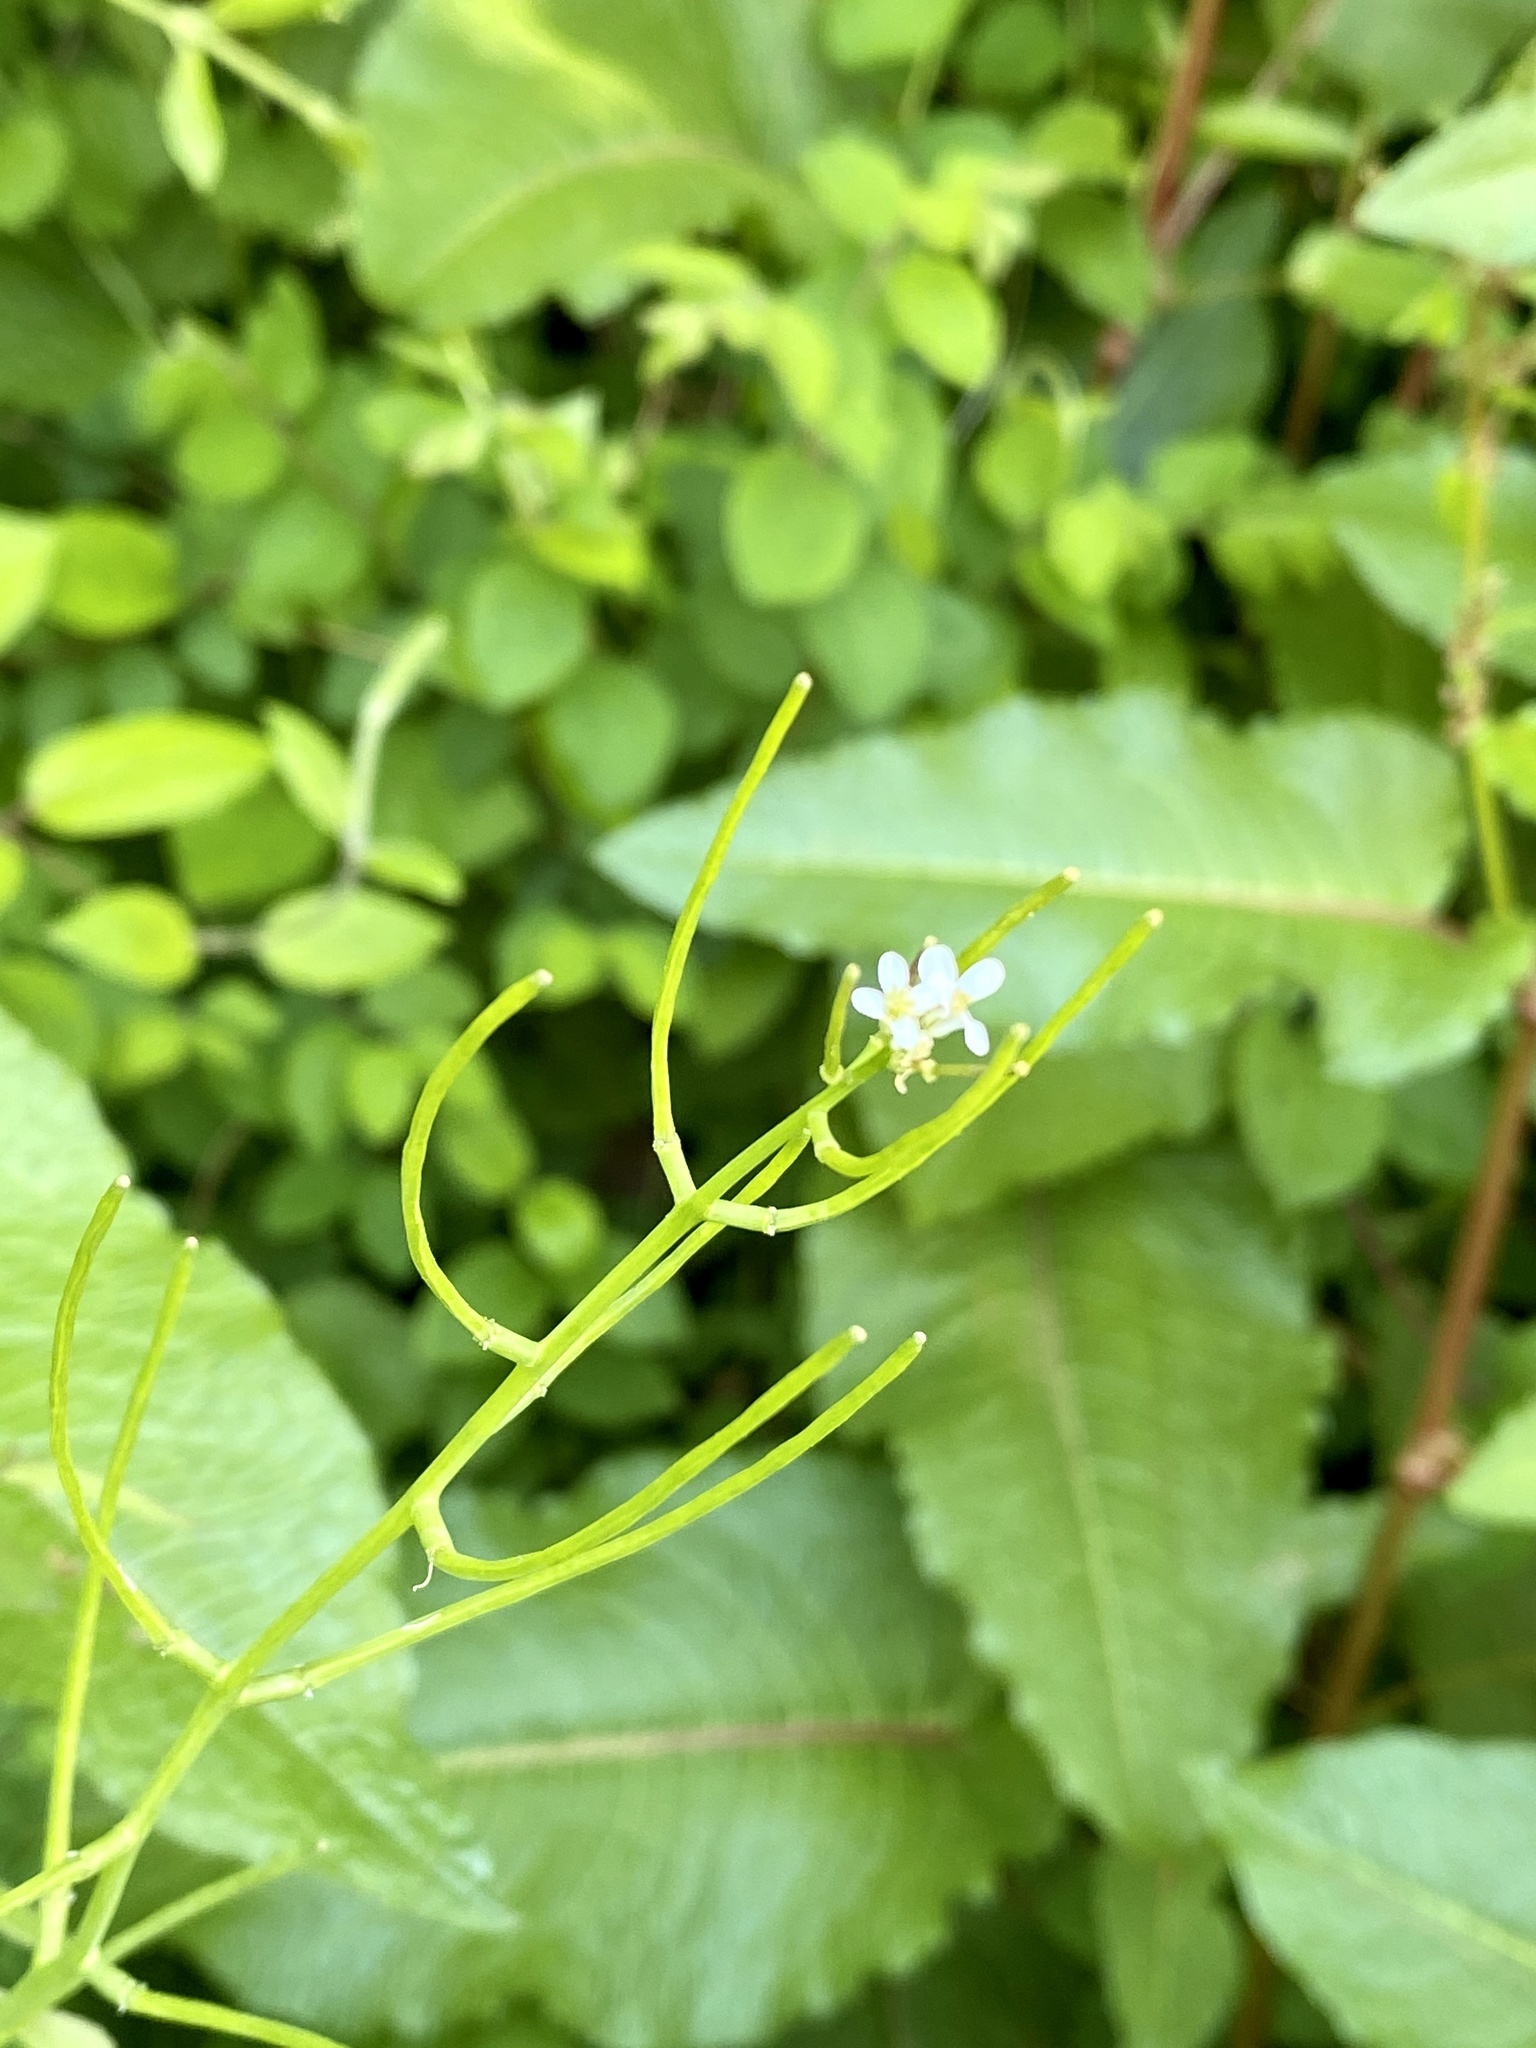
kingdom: Plantae
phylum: Tracheophyta
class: Magnoliopsida
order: Brassicales
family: Brassicaceae
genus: Alliaria
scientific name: Alliaria petiolata
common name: Garlic mustard
